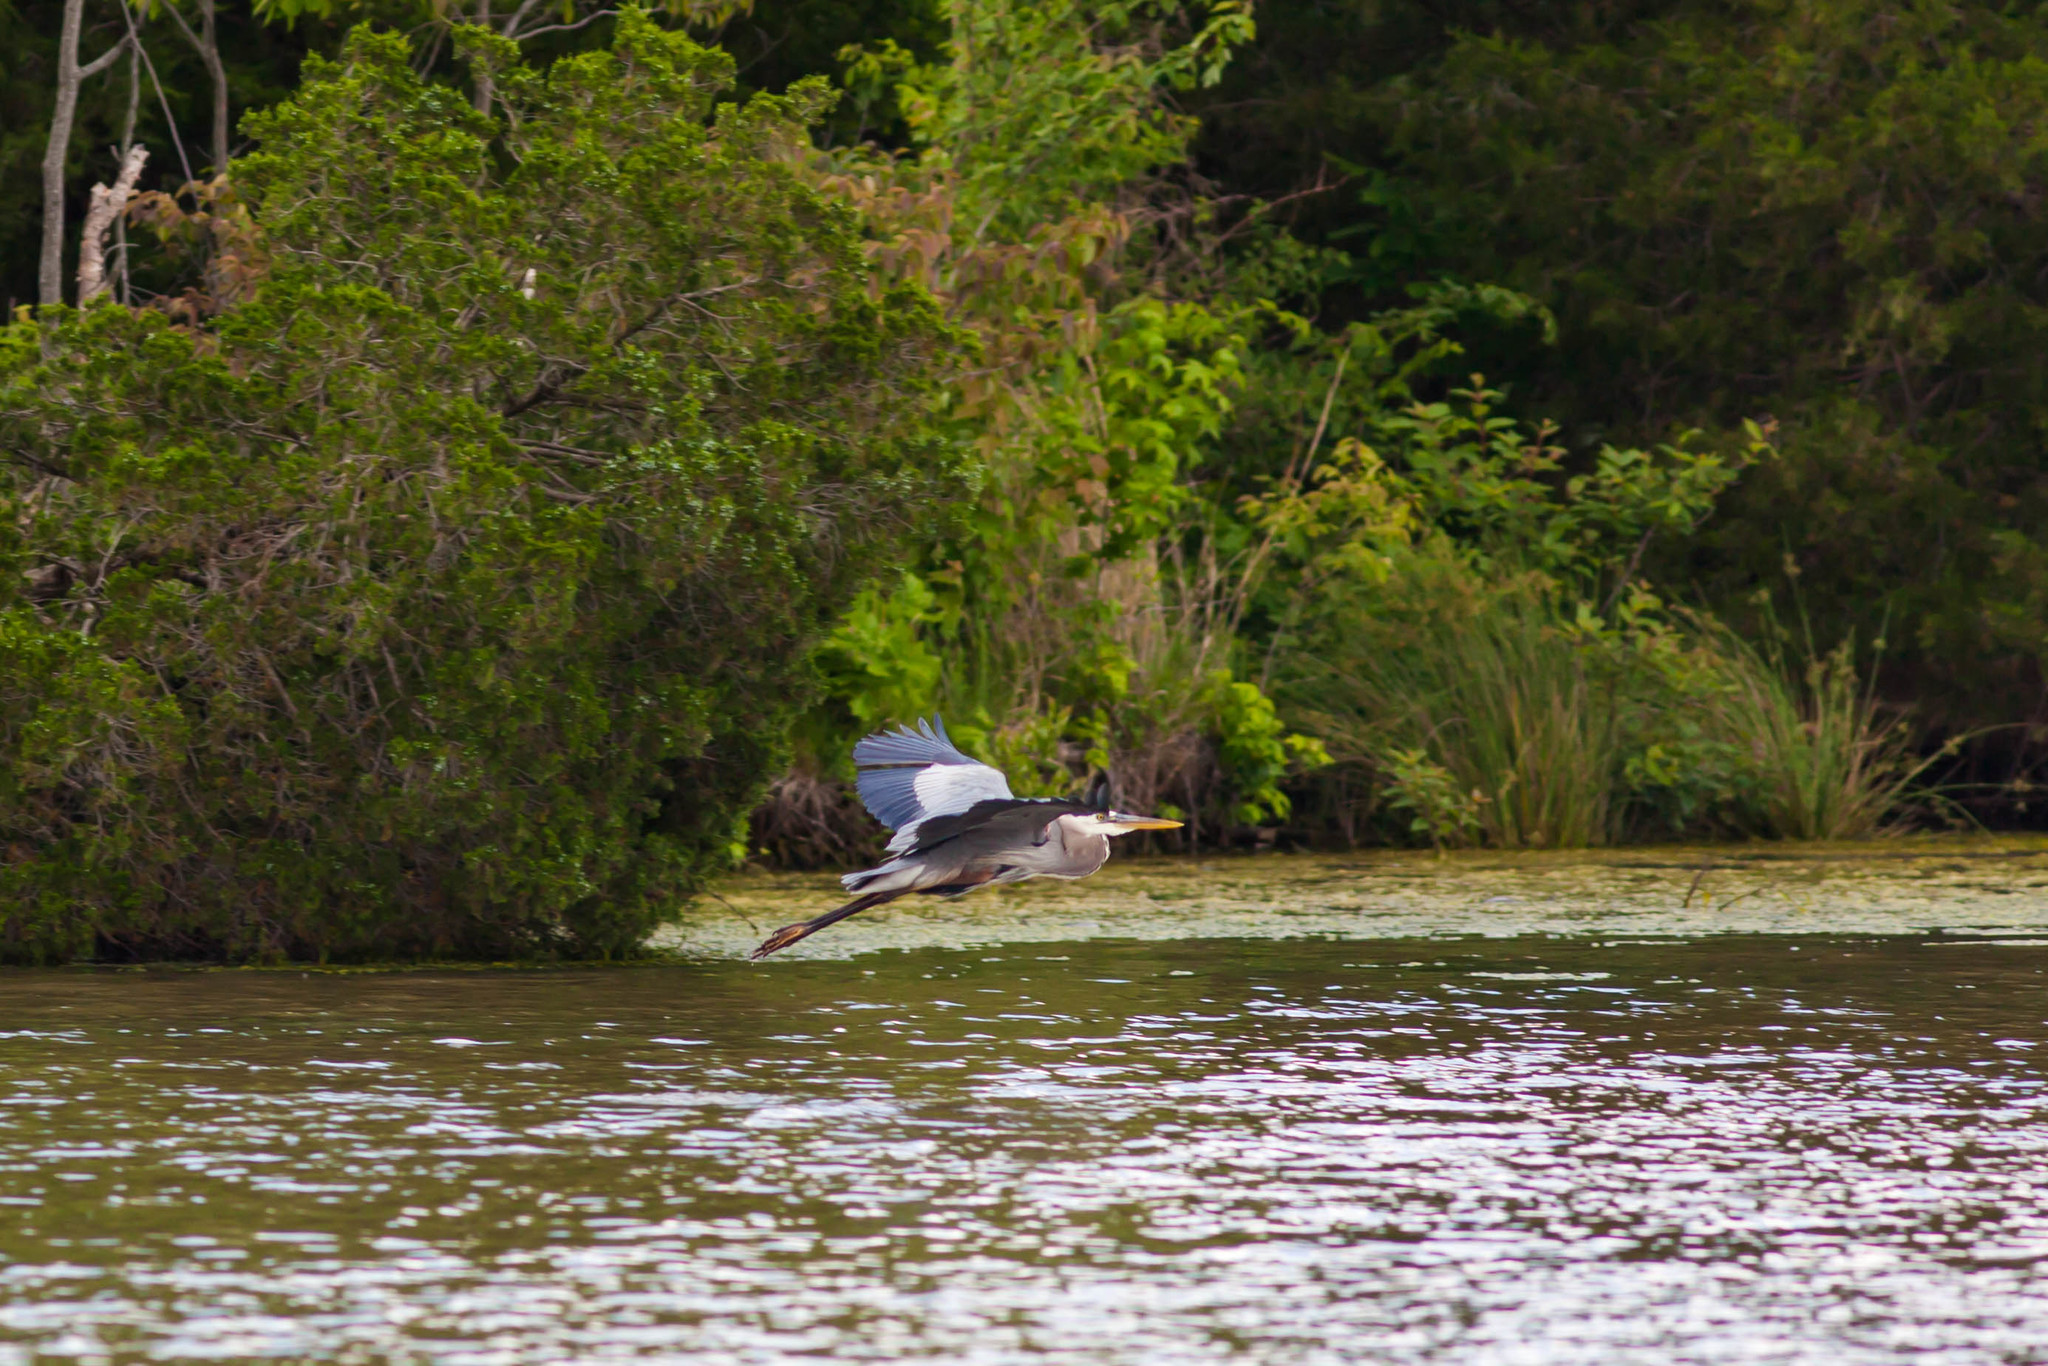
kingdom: Animalia
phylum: Chordata
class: Aves
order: Pelecaniformes
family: Ardeidae
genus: Ardea
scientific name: Ardea herodias
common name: Great blue heron
